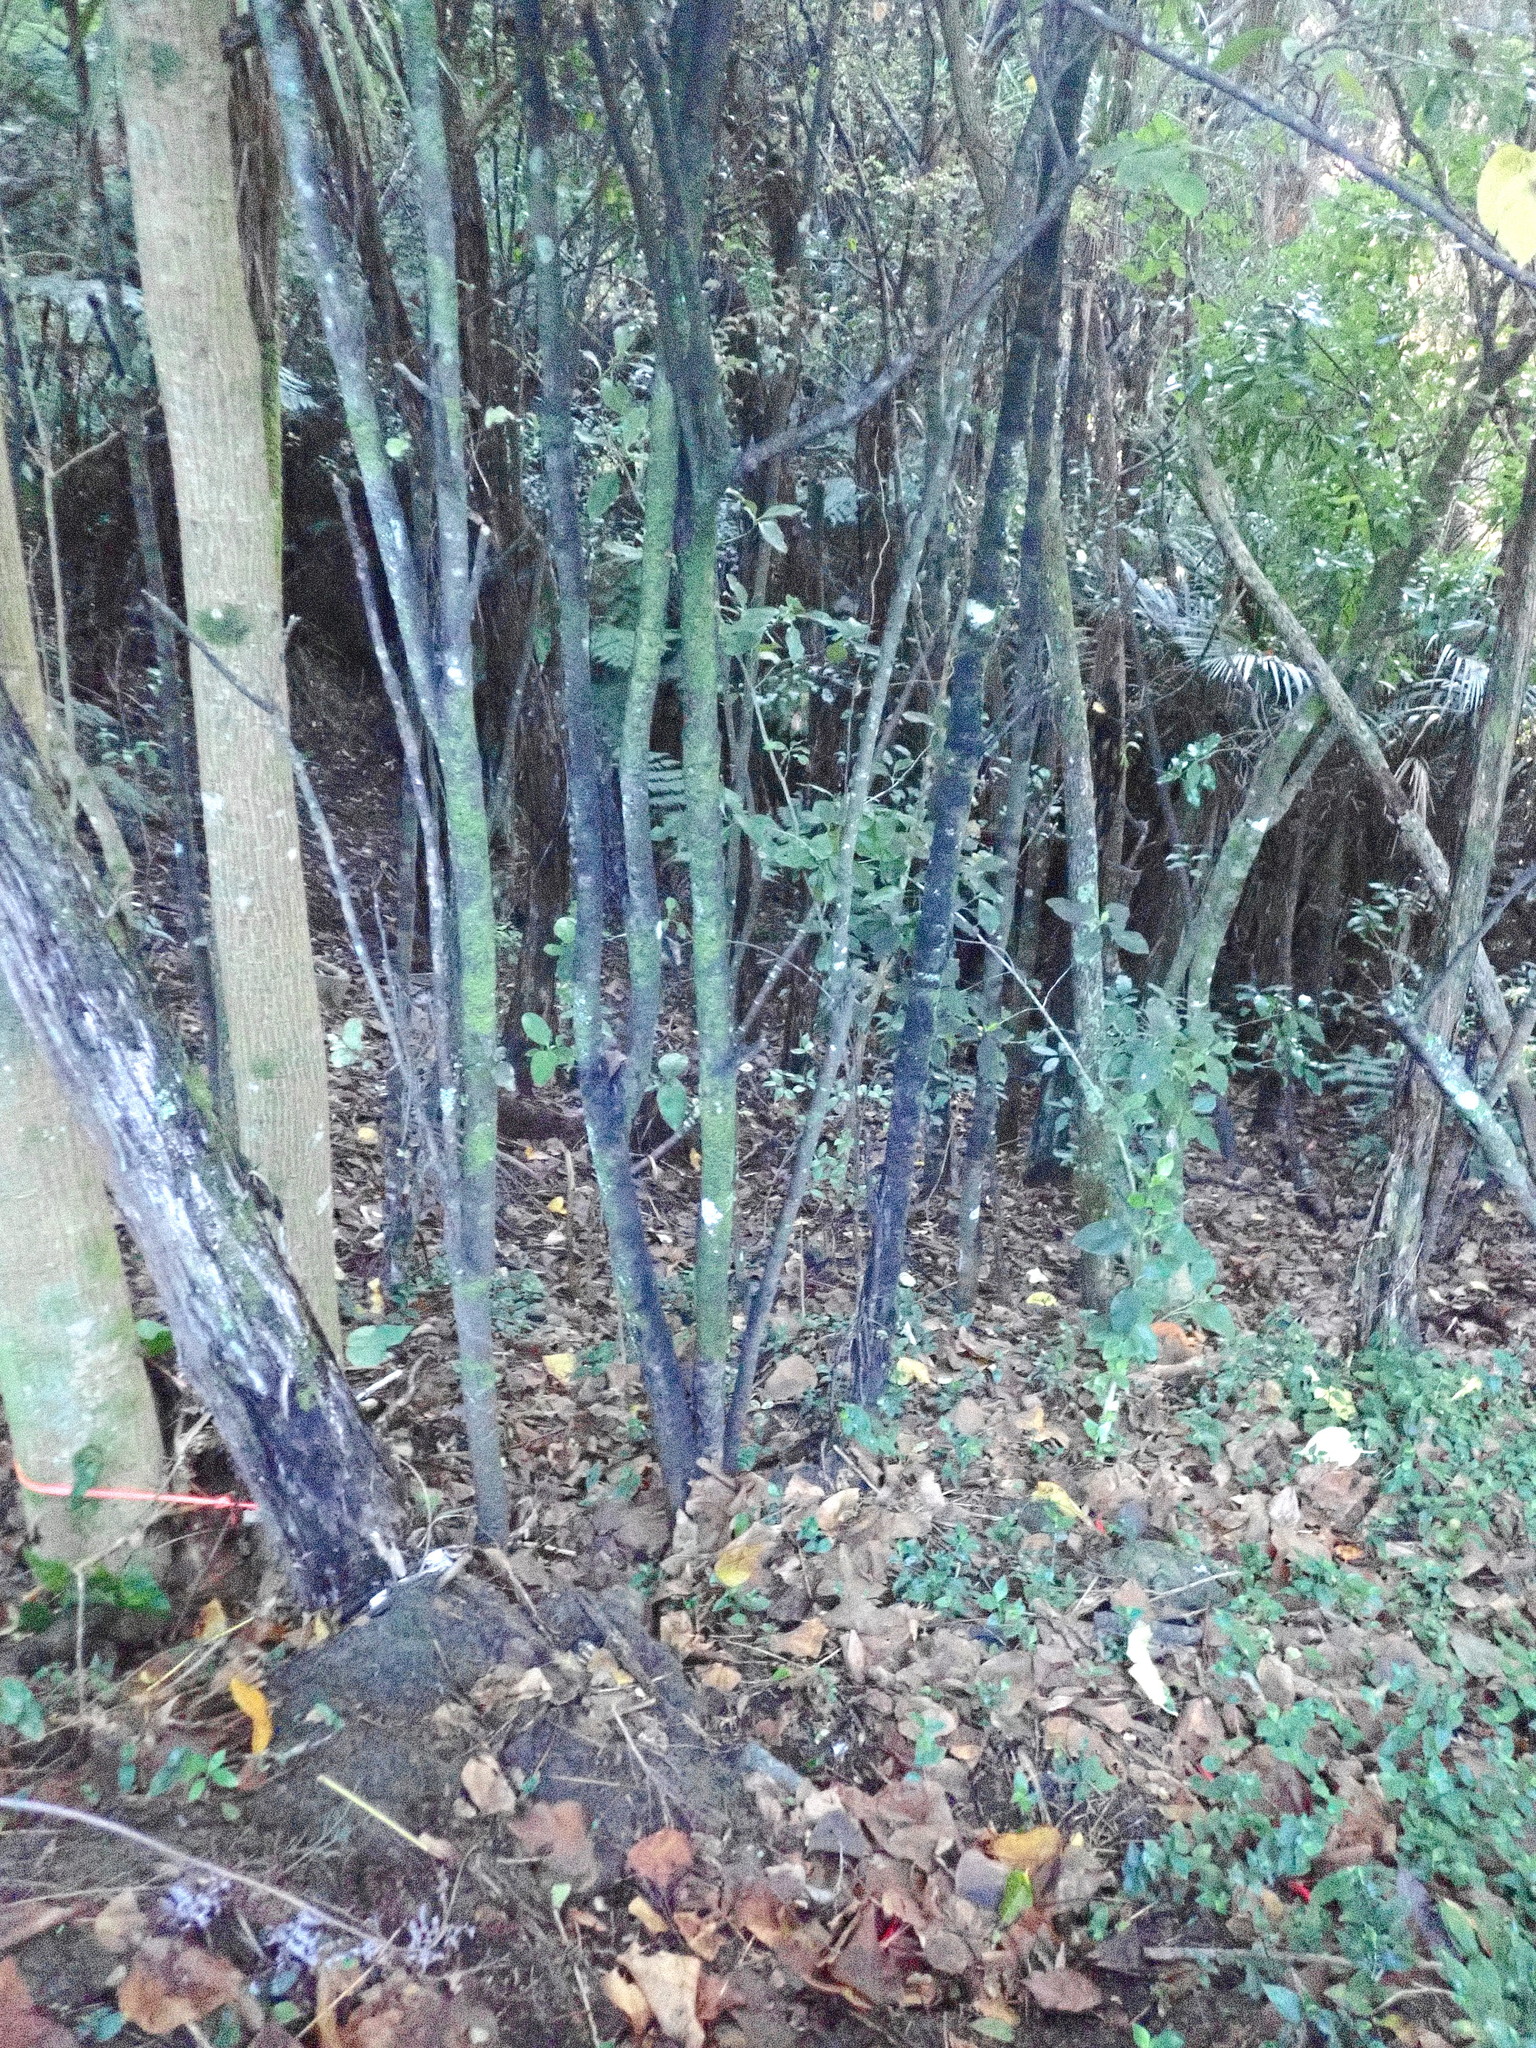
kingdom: Plantae
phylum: Tracheophyta
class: Magnoliopsida
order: Ericales
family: Primulaceae
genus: Myrsine
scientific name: Myrsine australis
